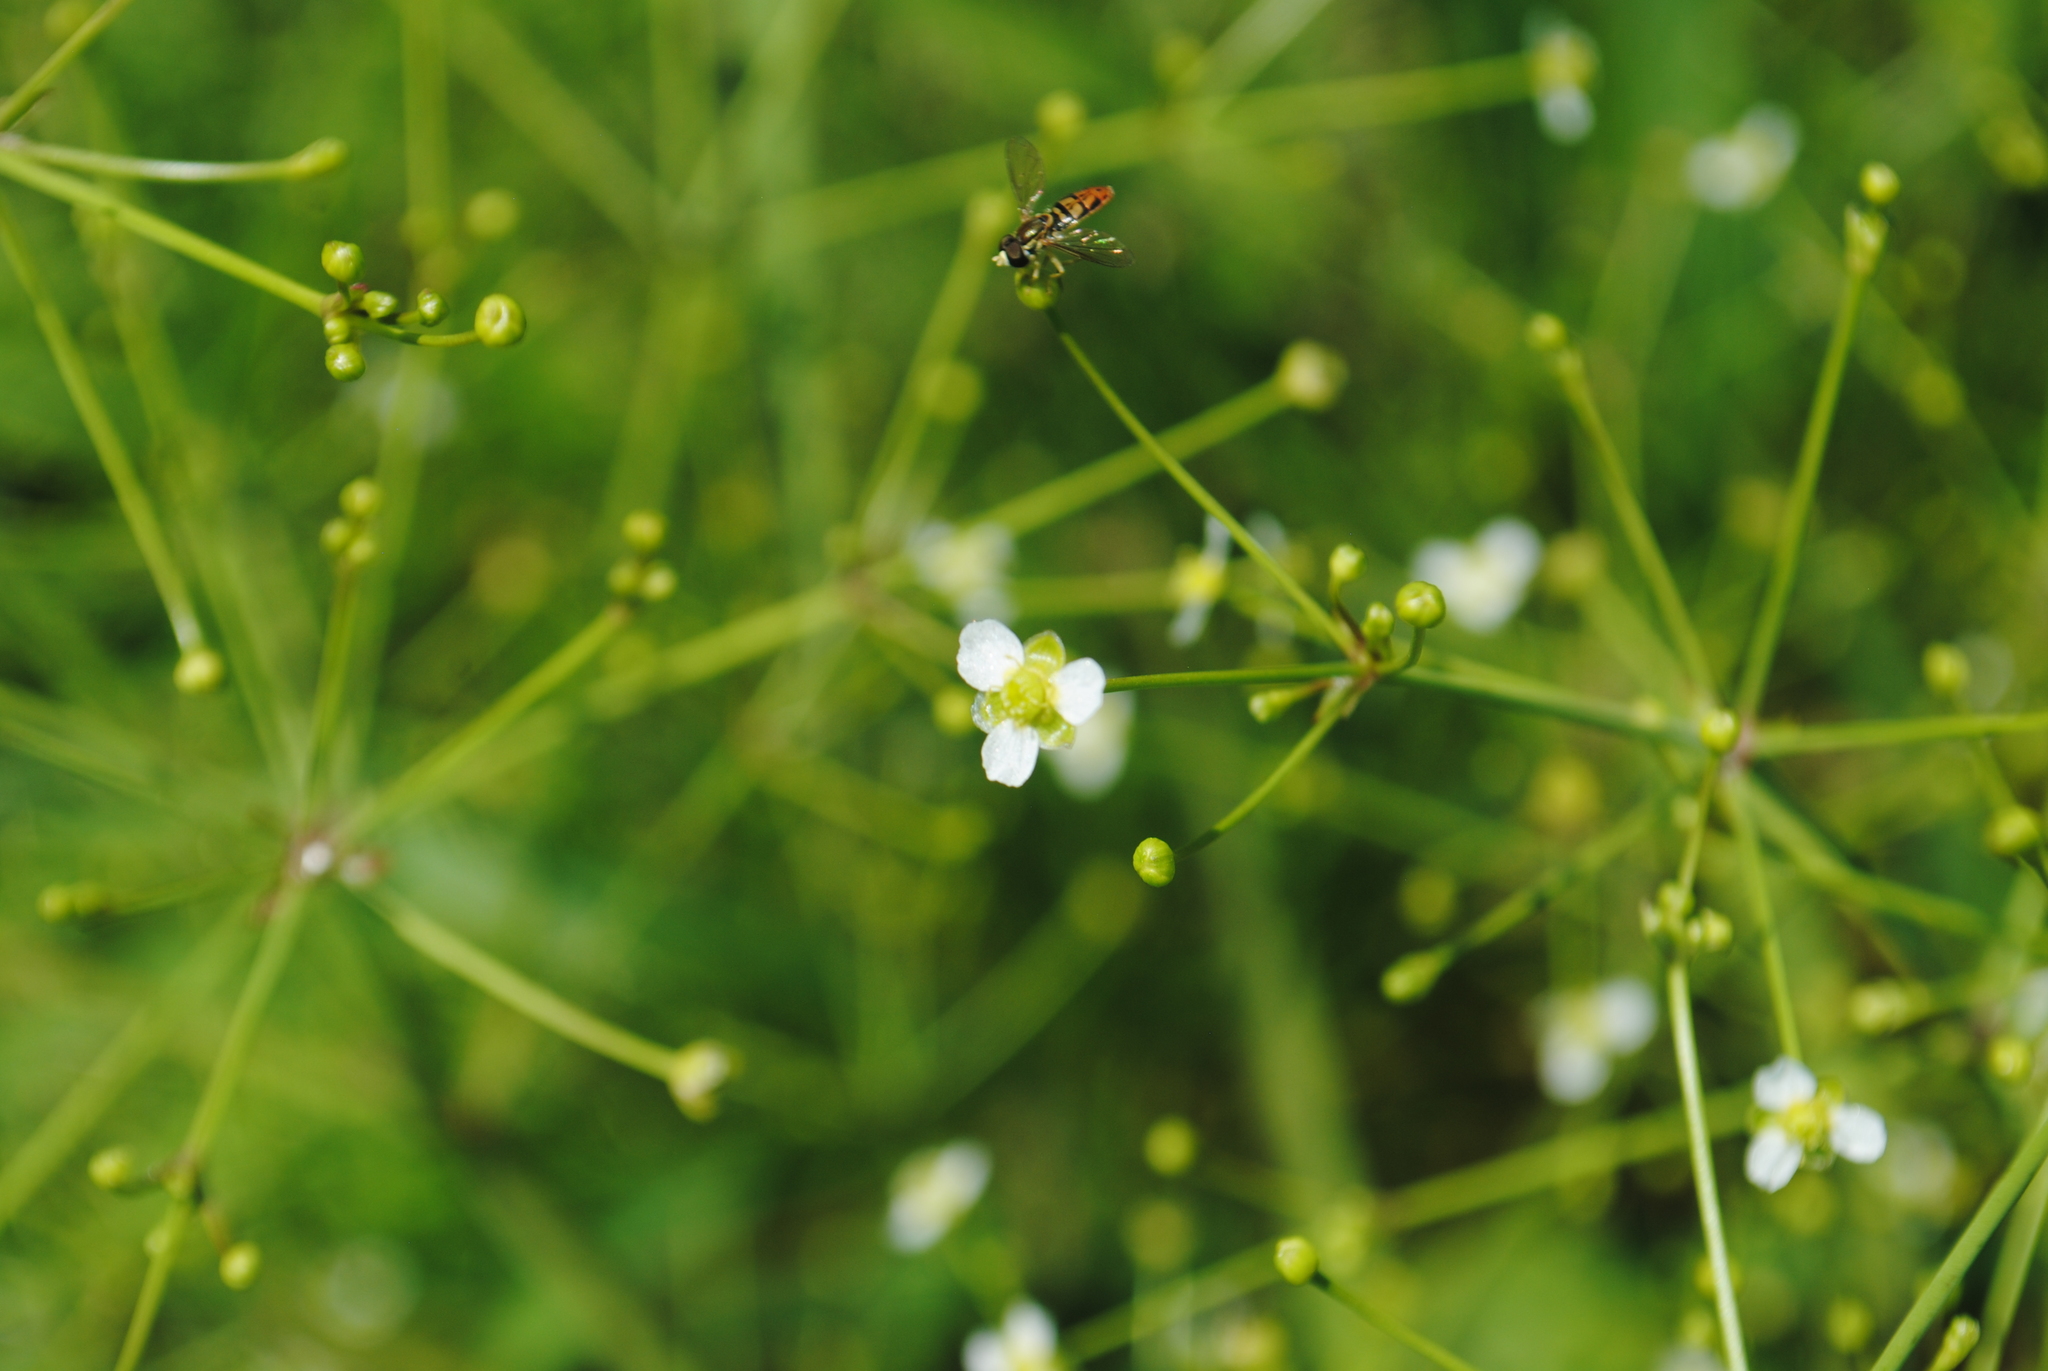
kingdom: Plantae
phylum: Tracheophyta
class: Liliopsida
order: Alismatales
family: Alismataceae
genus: Alisma
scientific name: Alisma subcordatum
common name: Southern water-plantain
